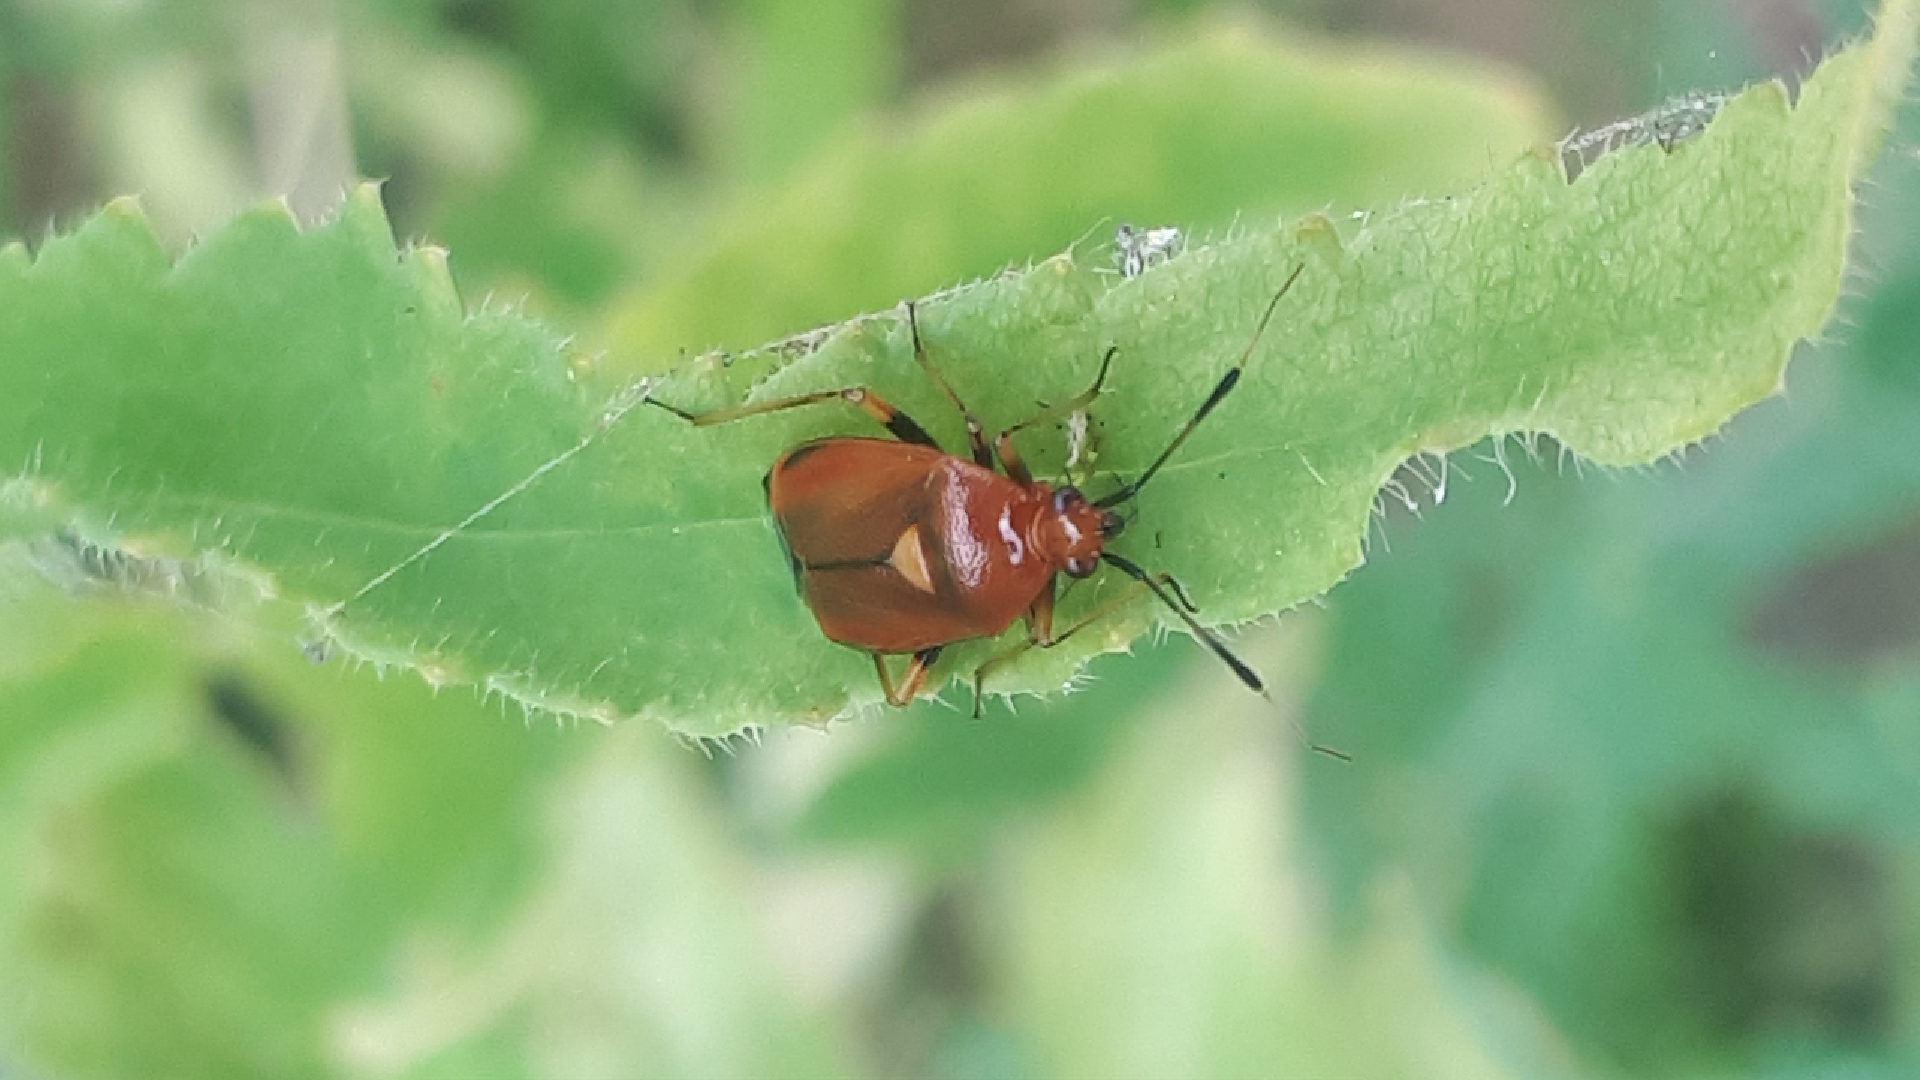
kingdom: Animalia
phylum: Arthropoda
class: Insecta
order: Hemiptera
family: Miridae
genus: Deraeocoris
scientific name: Deraeocoris ruber
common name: Plant bug
